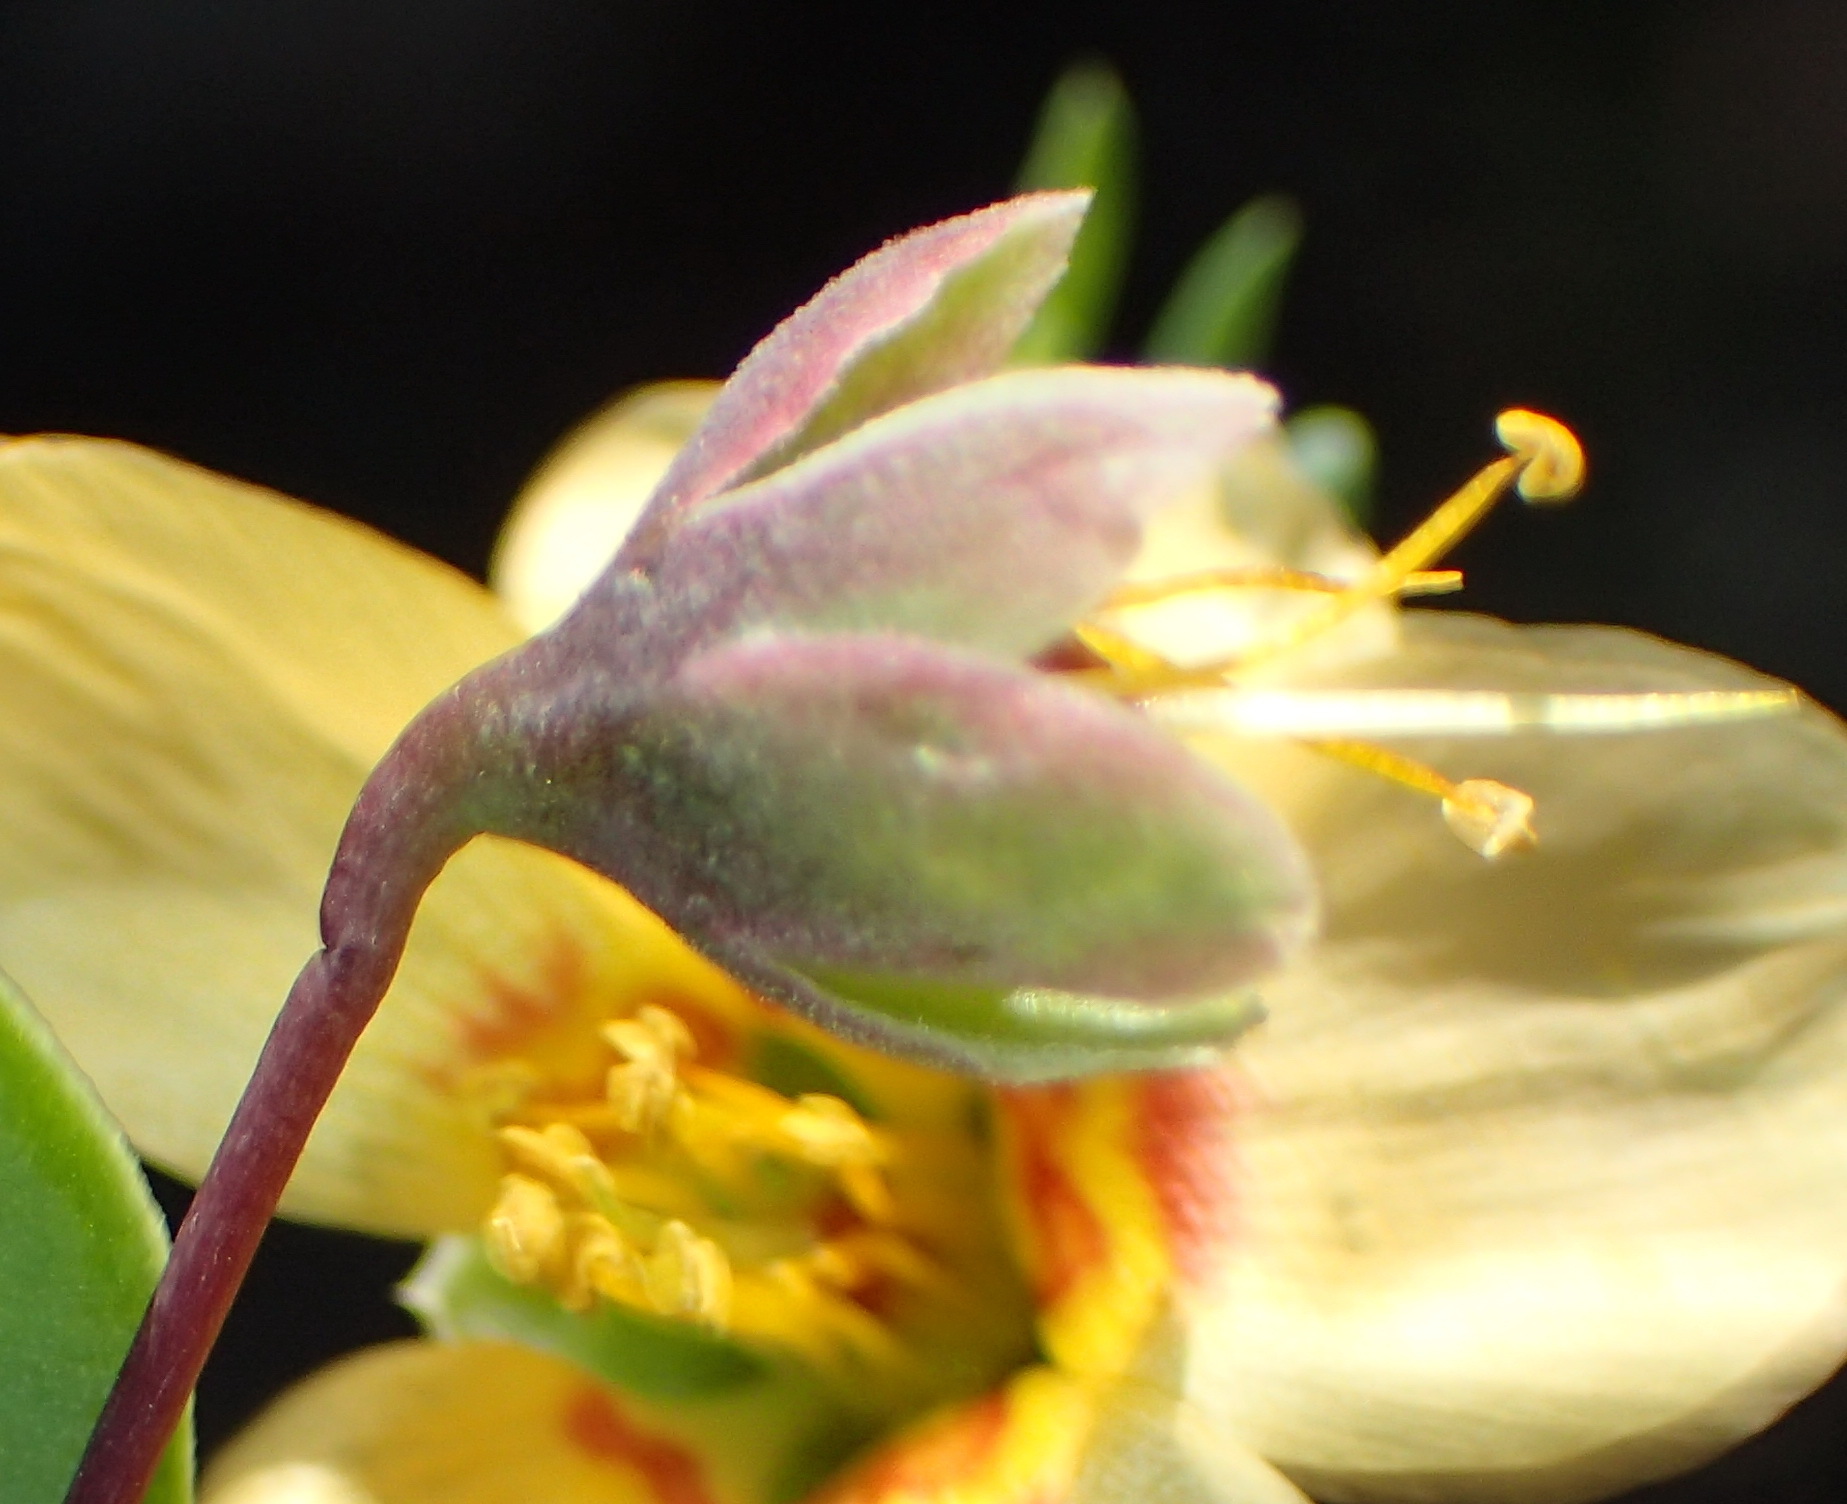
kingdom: Plantae
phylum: Tracheophyta
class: Magnoliopsida
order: Zygophyllales
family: Zygophyllaceae
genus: Roepera
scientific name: Roepera debilis
